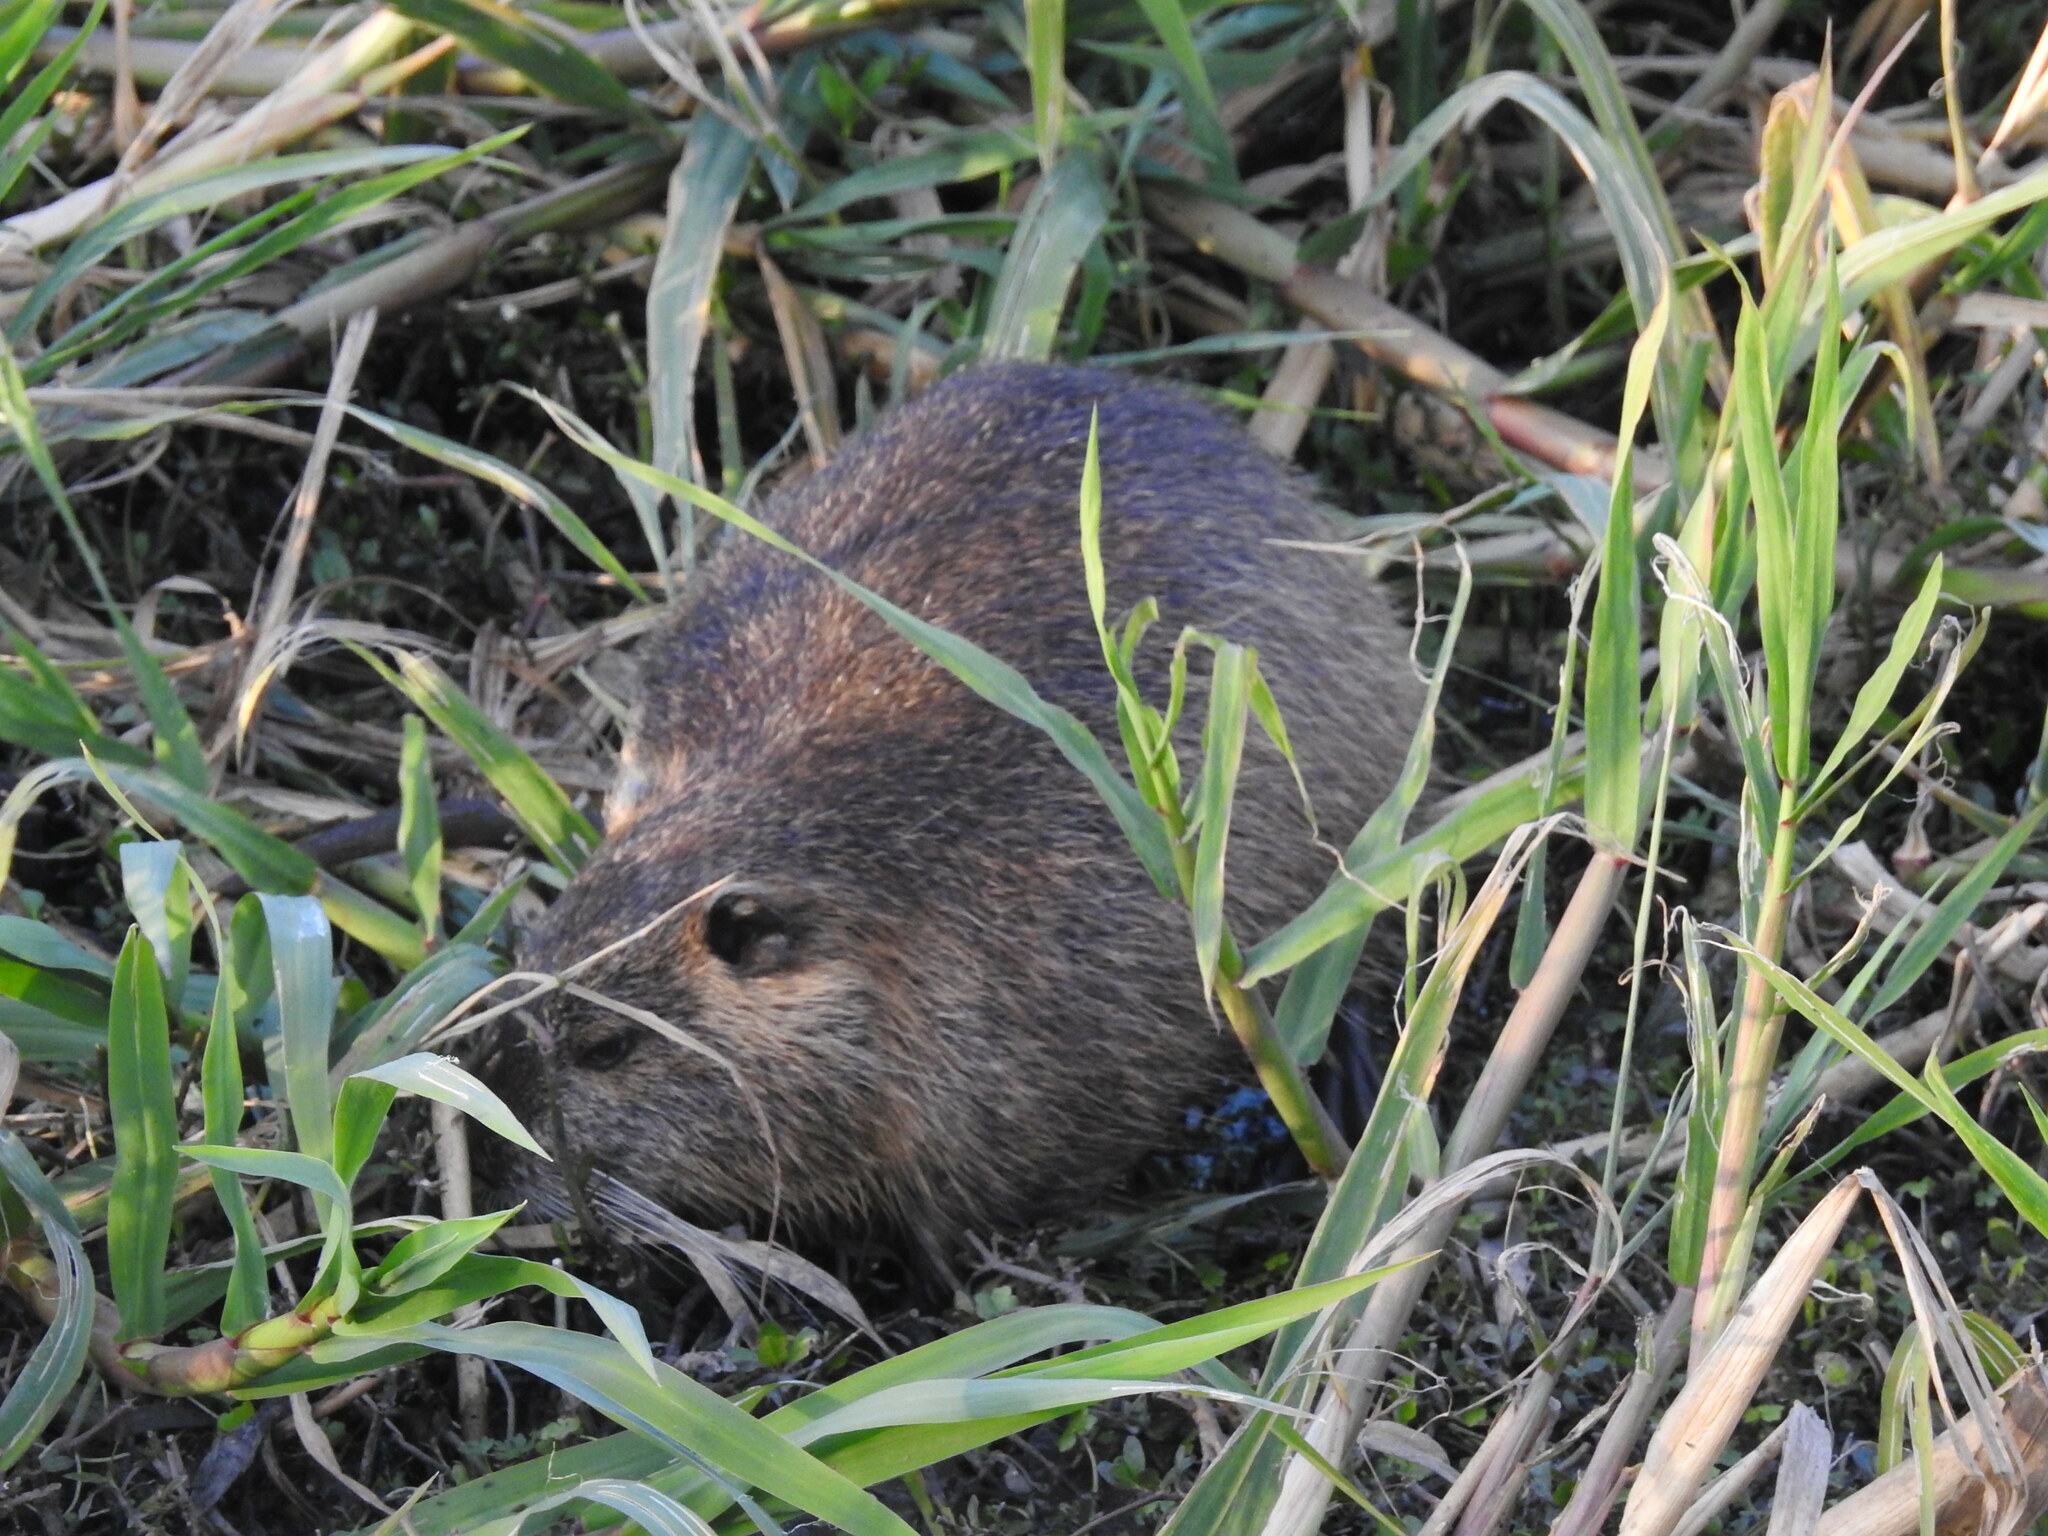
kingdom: Animalia
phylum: Chordata
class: Mammalia
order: Rodentia
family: Myocastoridae
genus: Myocastor
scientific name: Myocastor coypus
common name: Coypu
